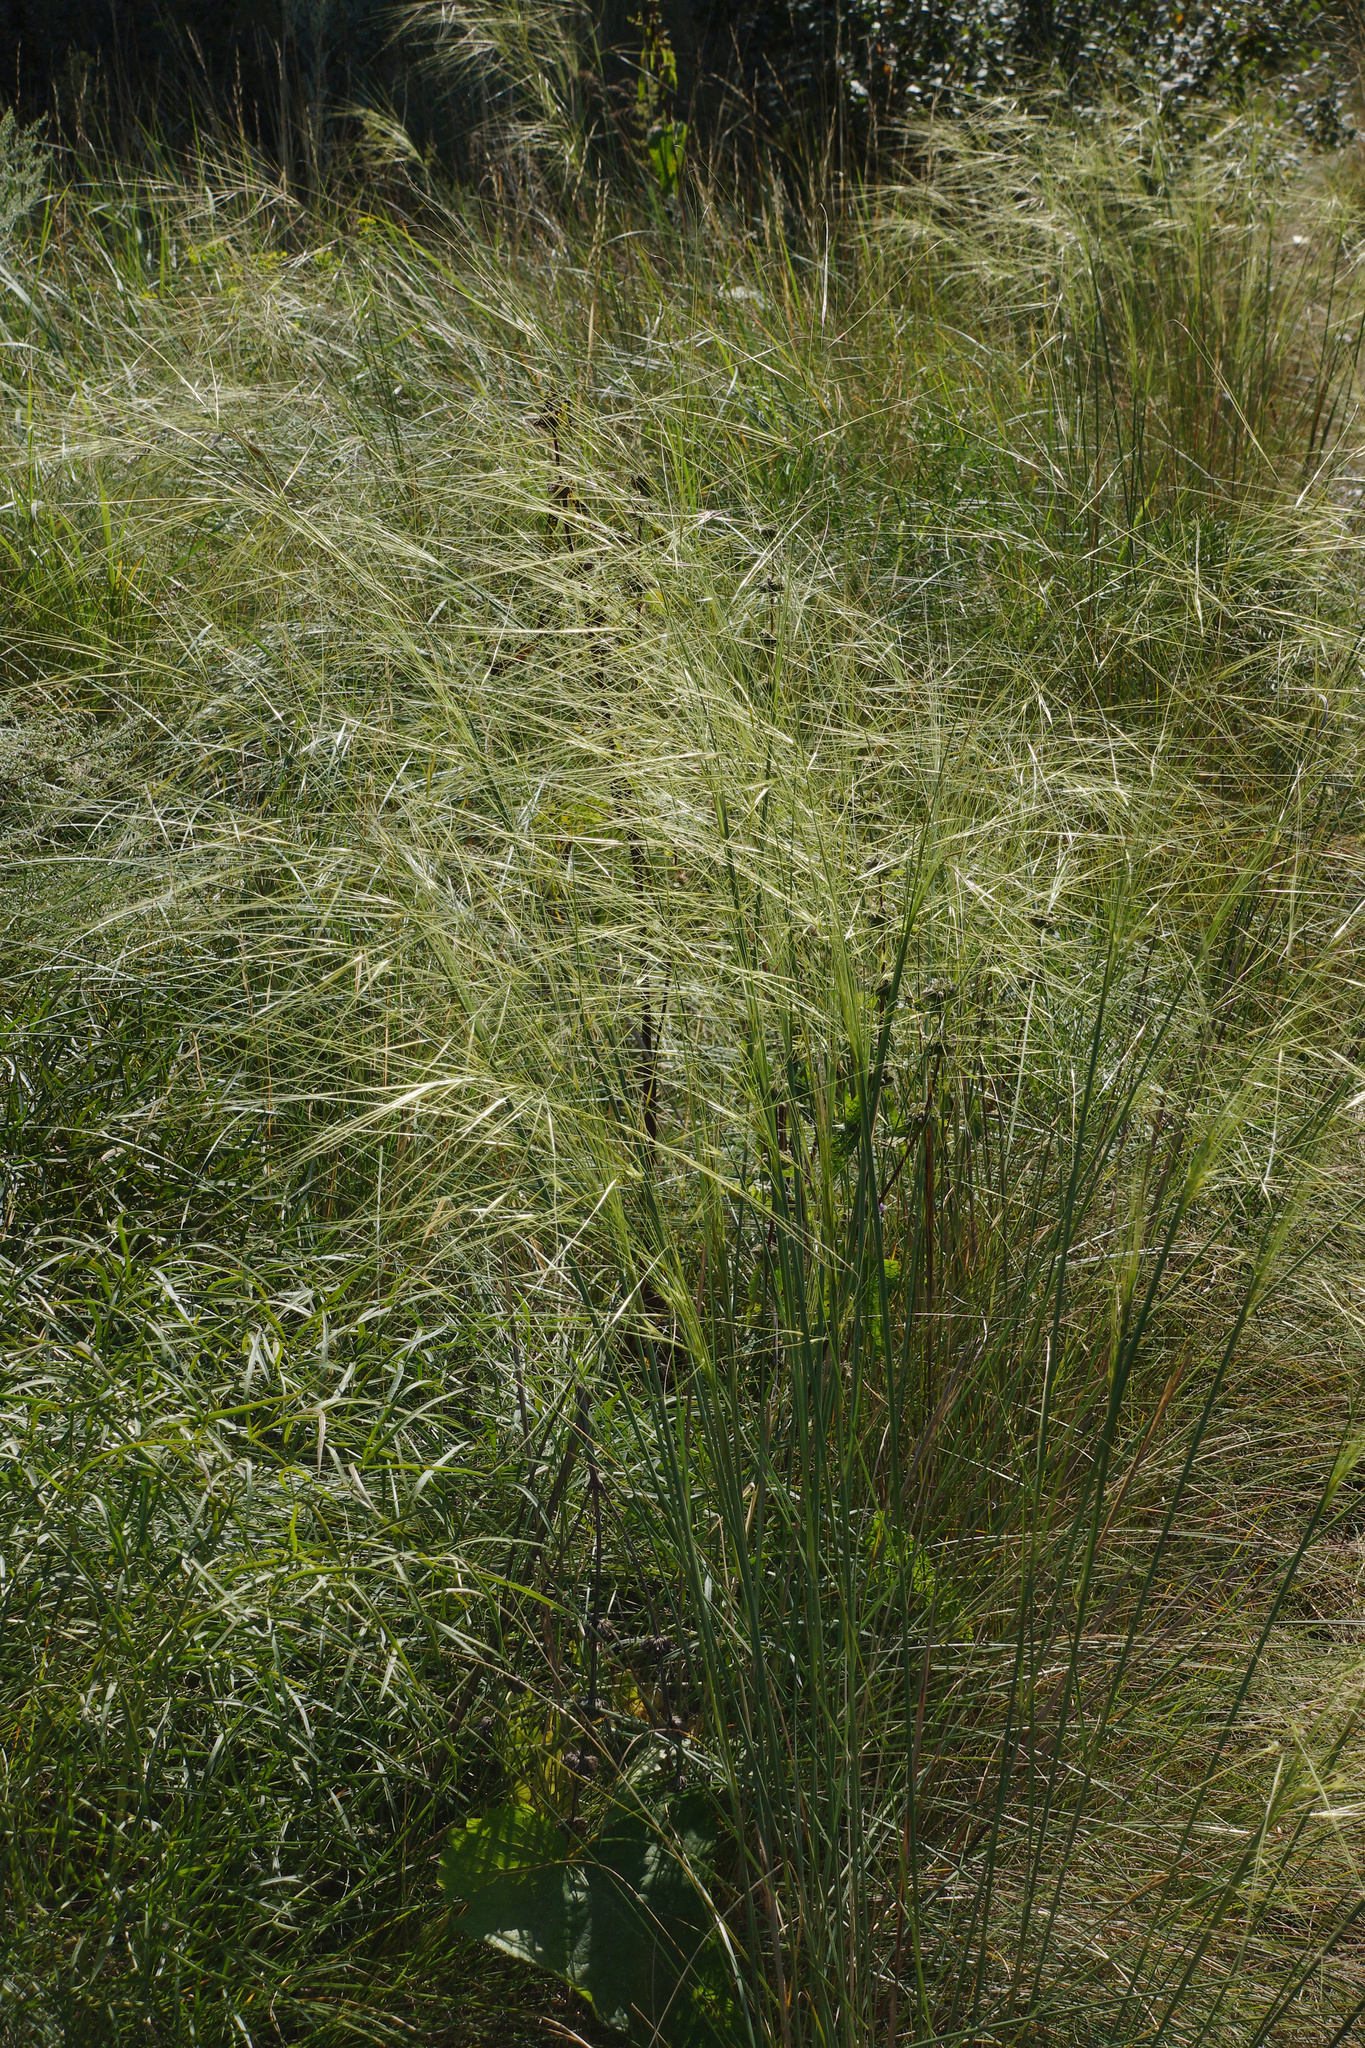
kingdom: Plantae
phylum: Tracheophyta
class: Liliopsida
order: Poales
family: Poaceae
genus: Stipa
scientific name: Stipa capillata
